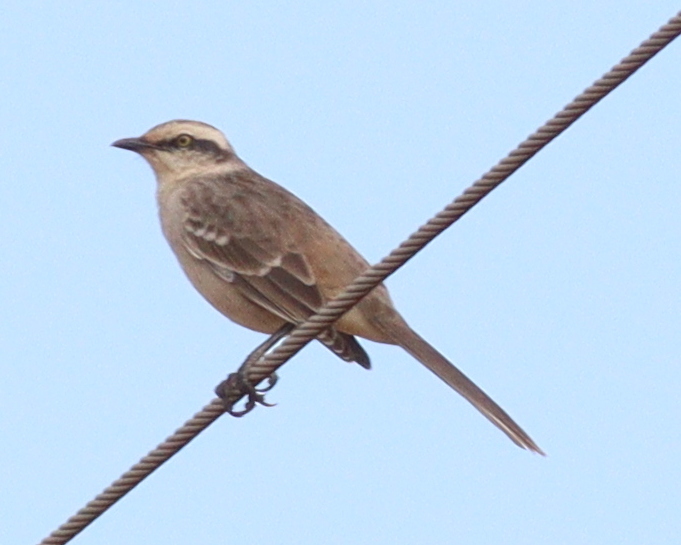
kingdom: Animalia
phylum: Chordata
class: Aves
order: Passeriformes
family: Mimidae
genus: Mimus
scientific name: Mimus saturninus
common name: Chalk-browed mockingbird
